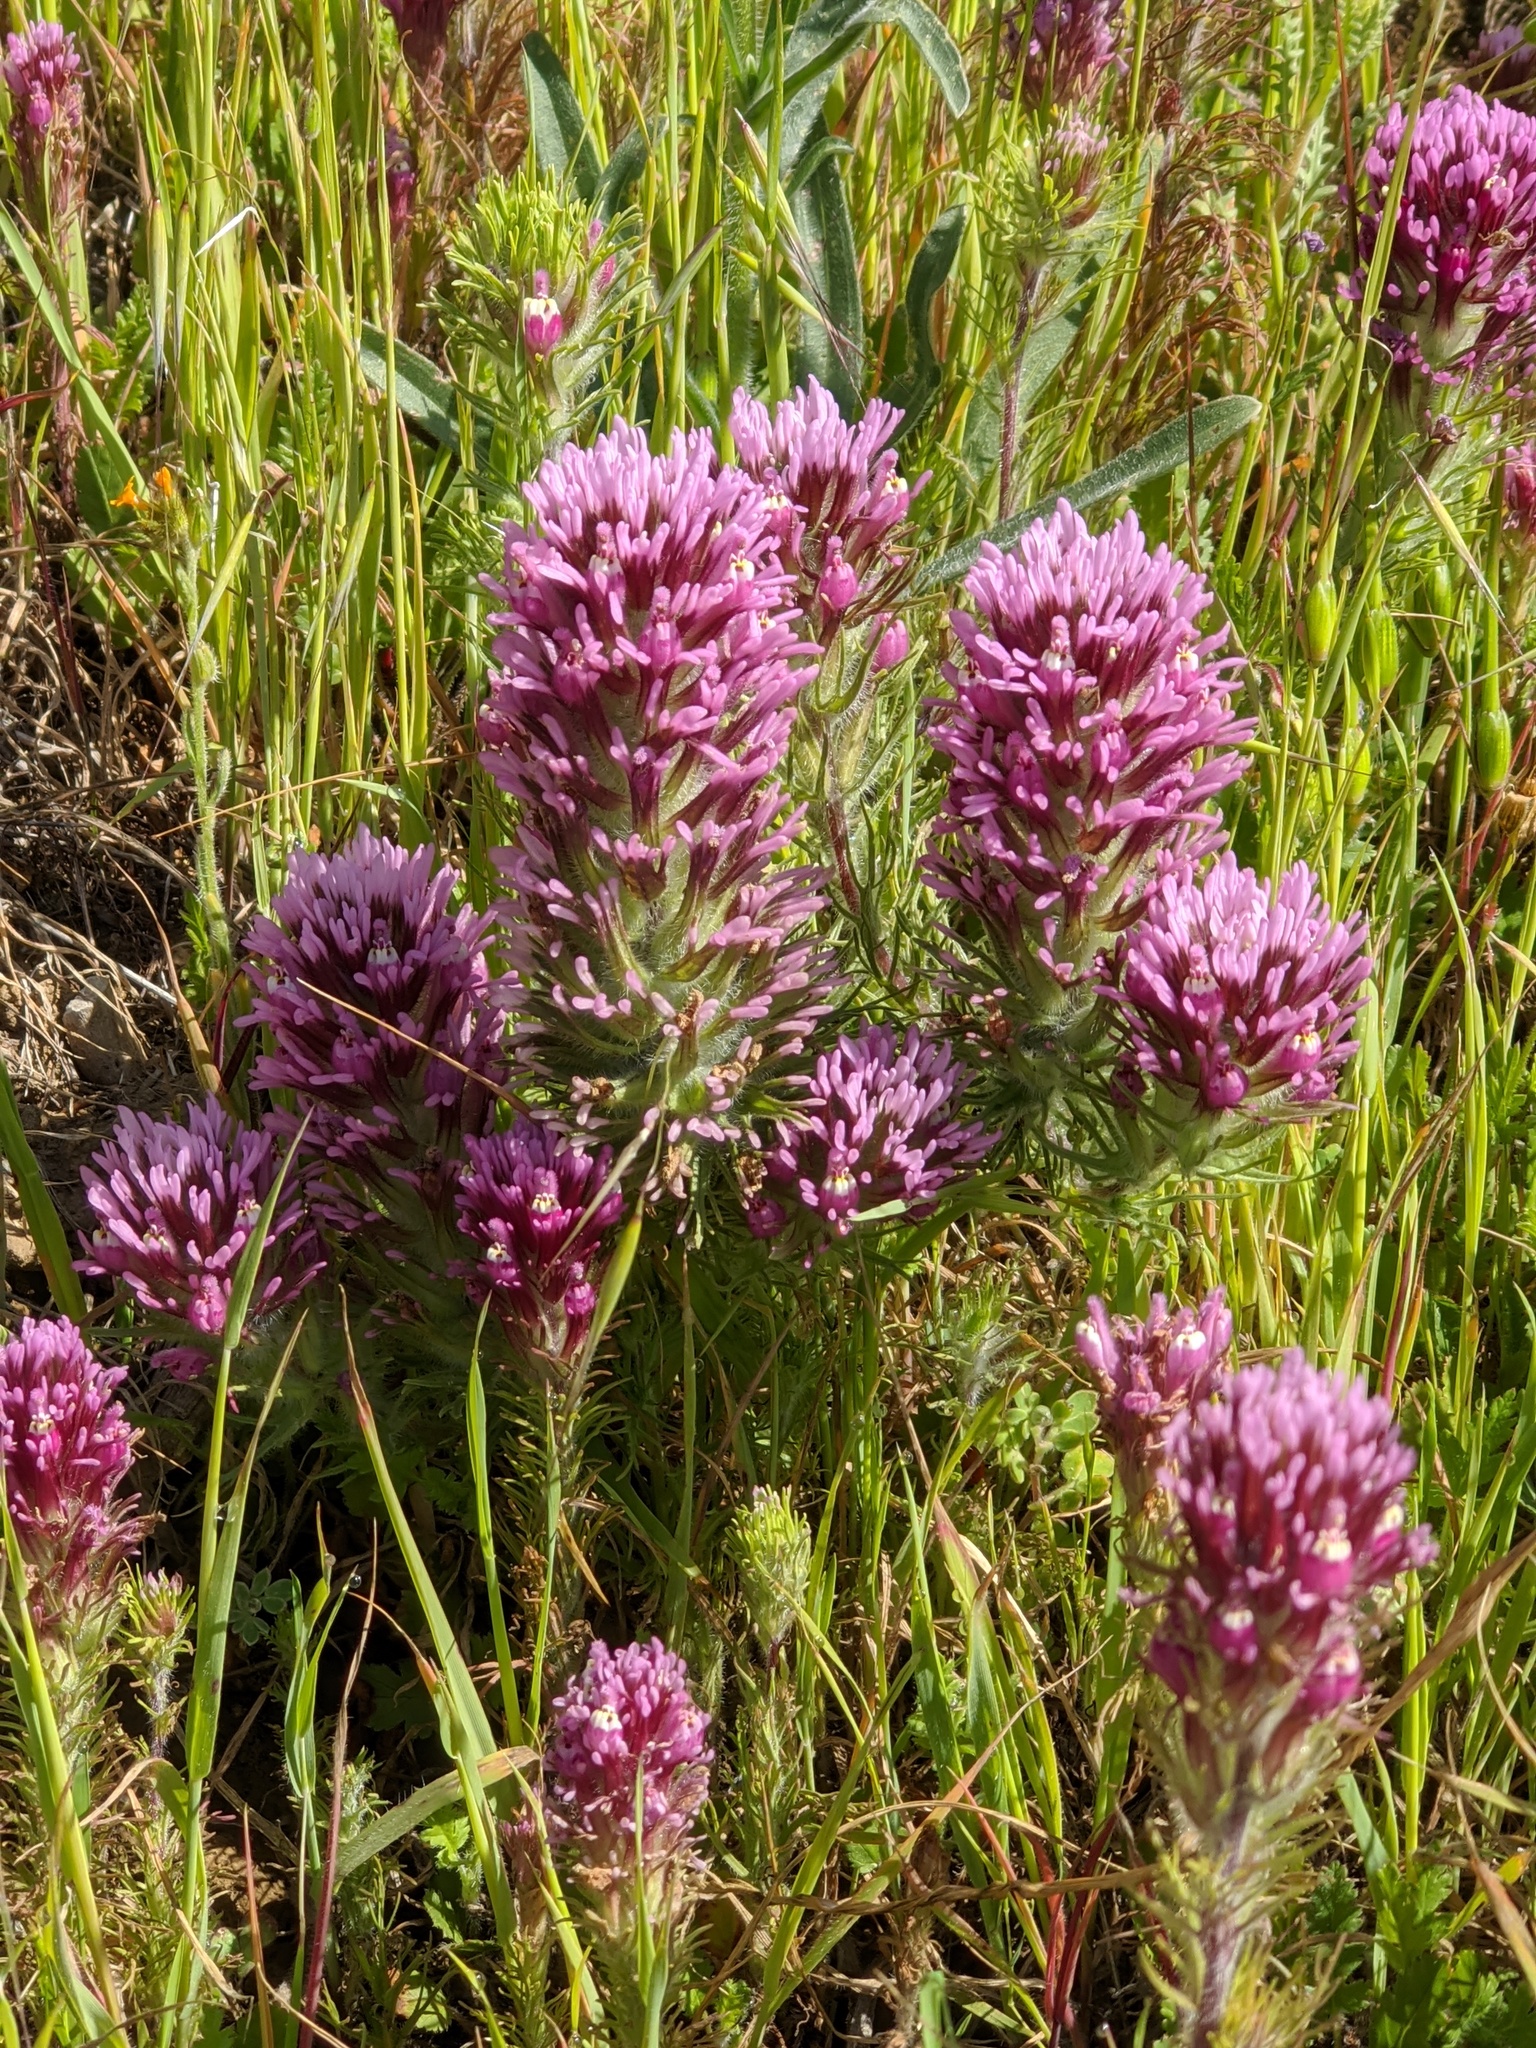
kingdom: Plantae
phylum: Tracheophyta
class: Magnoliopsida
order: Lamiales
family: Orobanchaceae
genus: Castilleja
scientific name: Castilleja exserta
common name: Purple owl-clover
